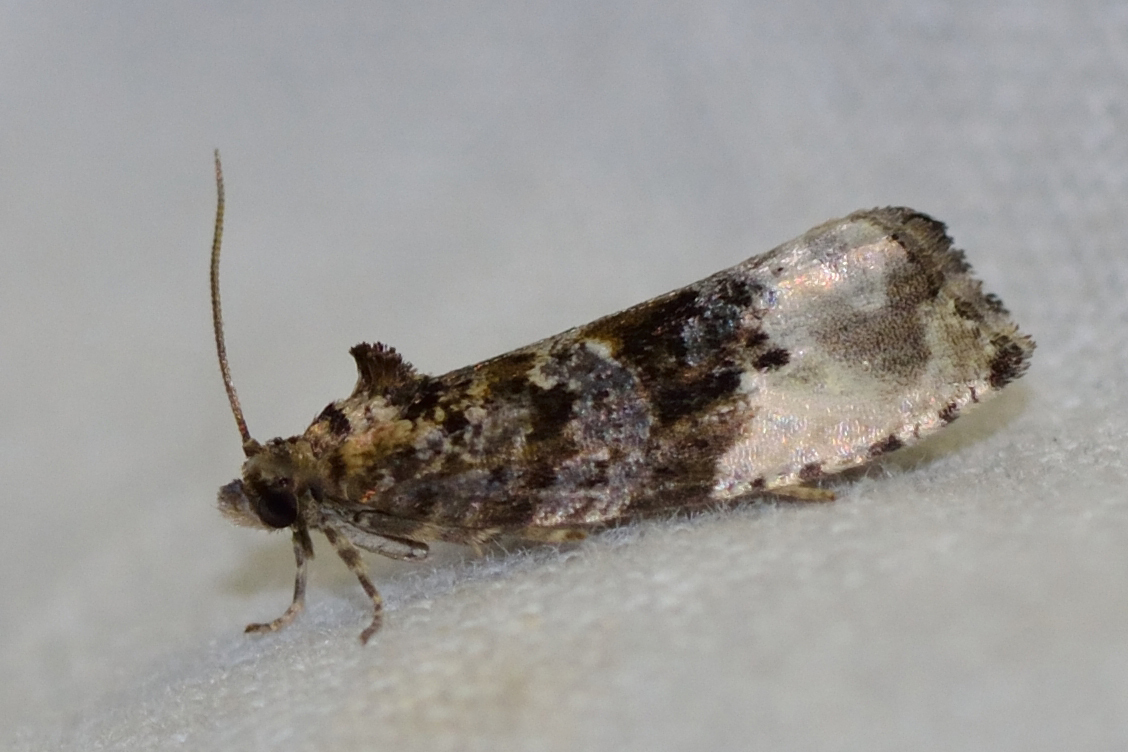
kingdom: Animalia
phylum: Arthropoda
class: Insecta
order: Lepidoptera
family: Tortricidae
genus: Hedya
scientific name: Hedya nubiferana
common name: Marbled orchard tortrix
